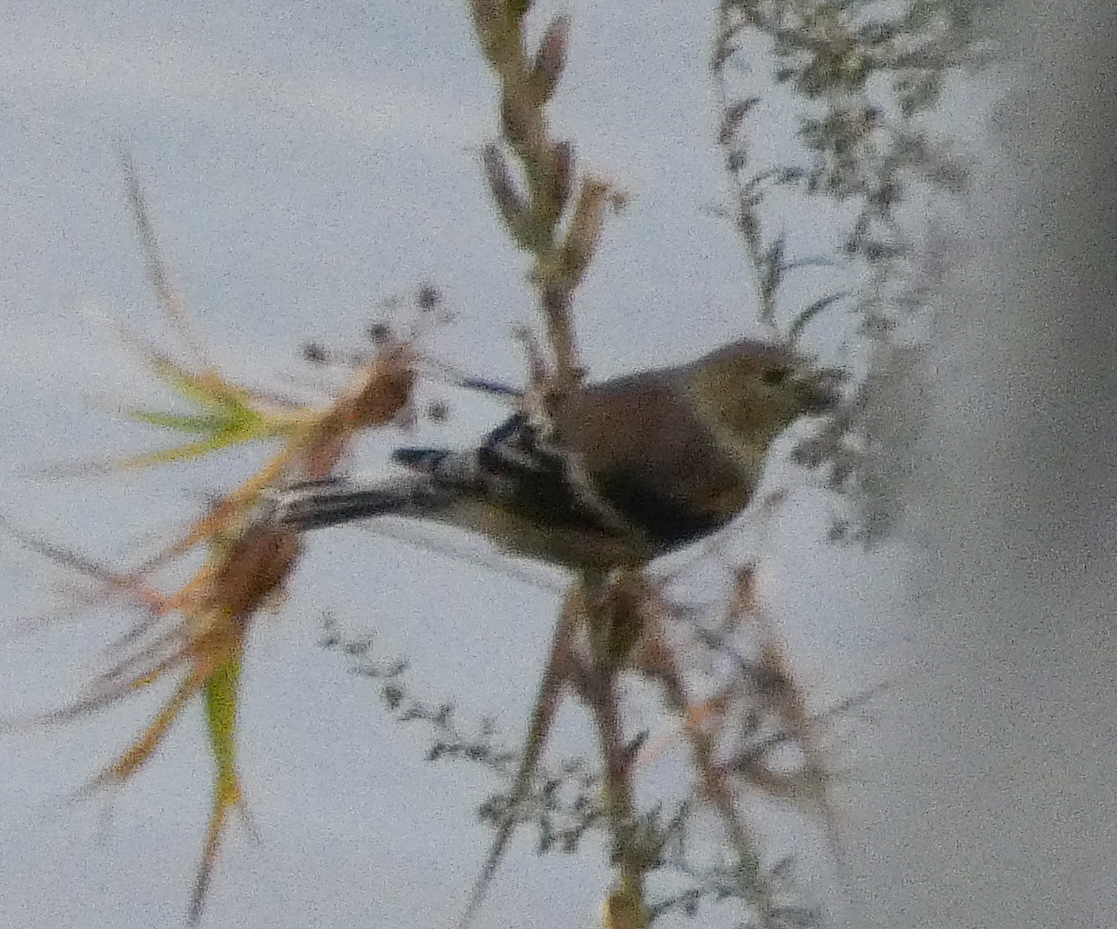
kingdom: Animalia
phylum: Chordata
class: Aves
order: Passeriformes
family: Fringillidae
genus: Spinus
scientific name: Spinus tristis
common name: American goldfinch
